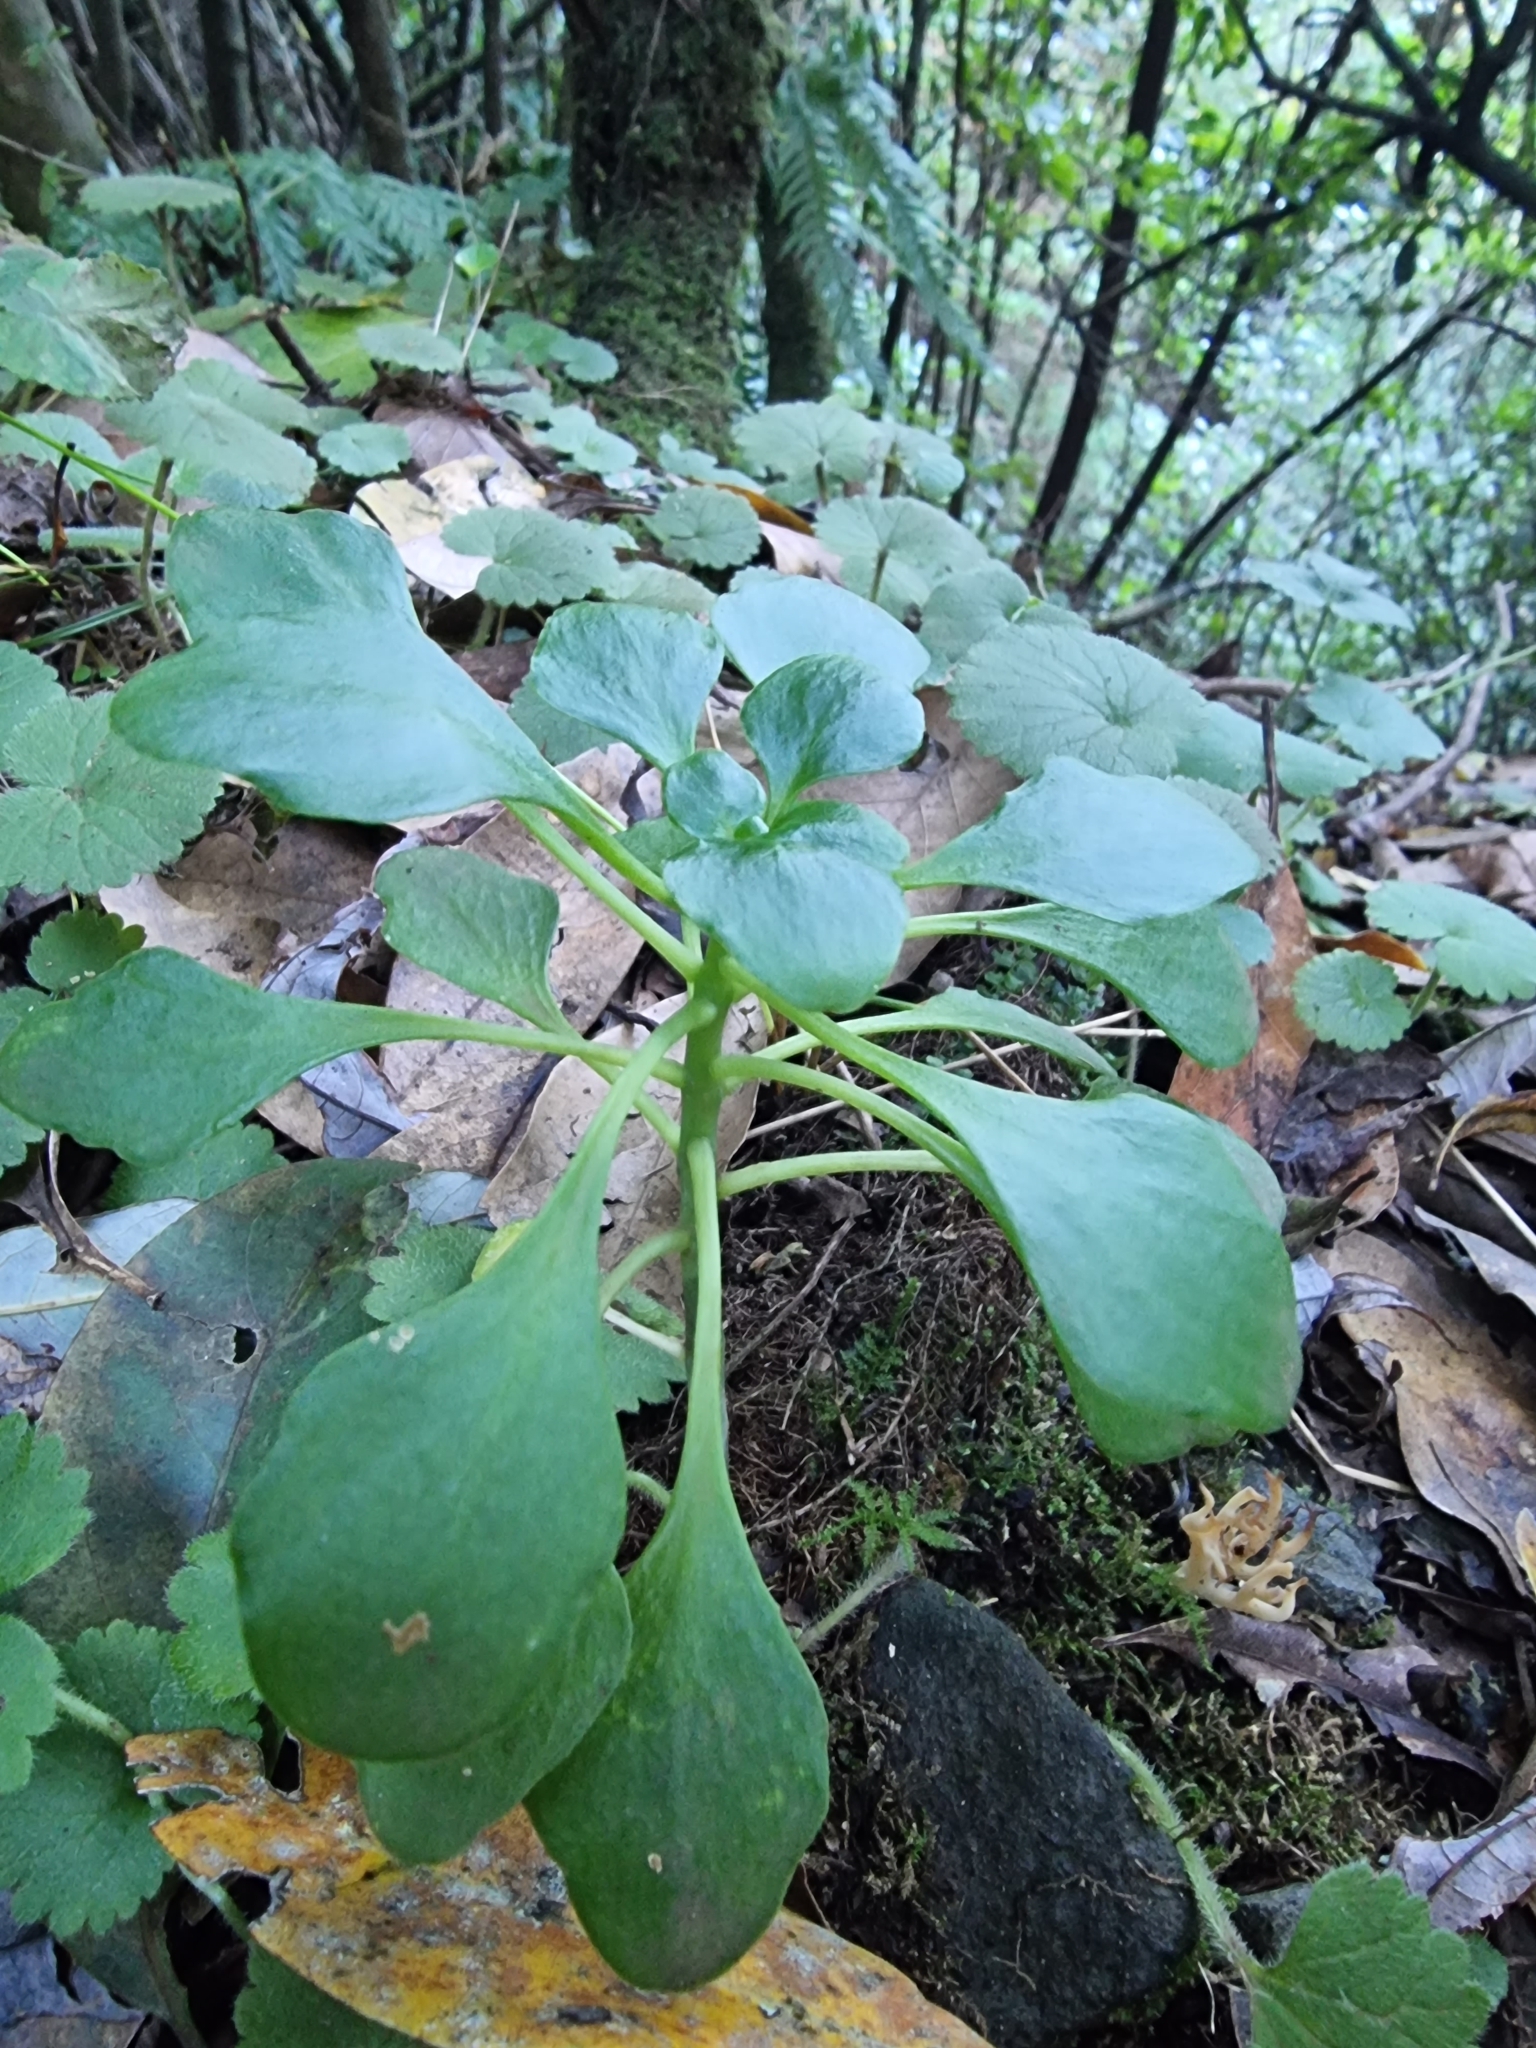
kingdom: Plantae
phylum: Tracheophyta
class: Magnoliopsida
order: Saxifragales
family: Crassulaceae
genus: Aichryson
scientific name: Aichryson divaricatum
